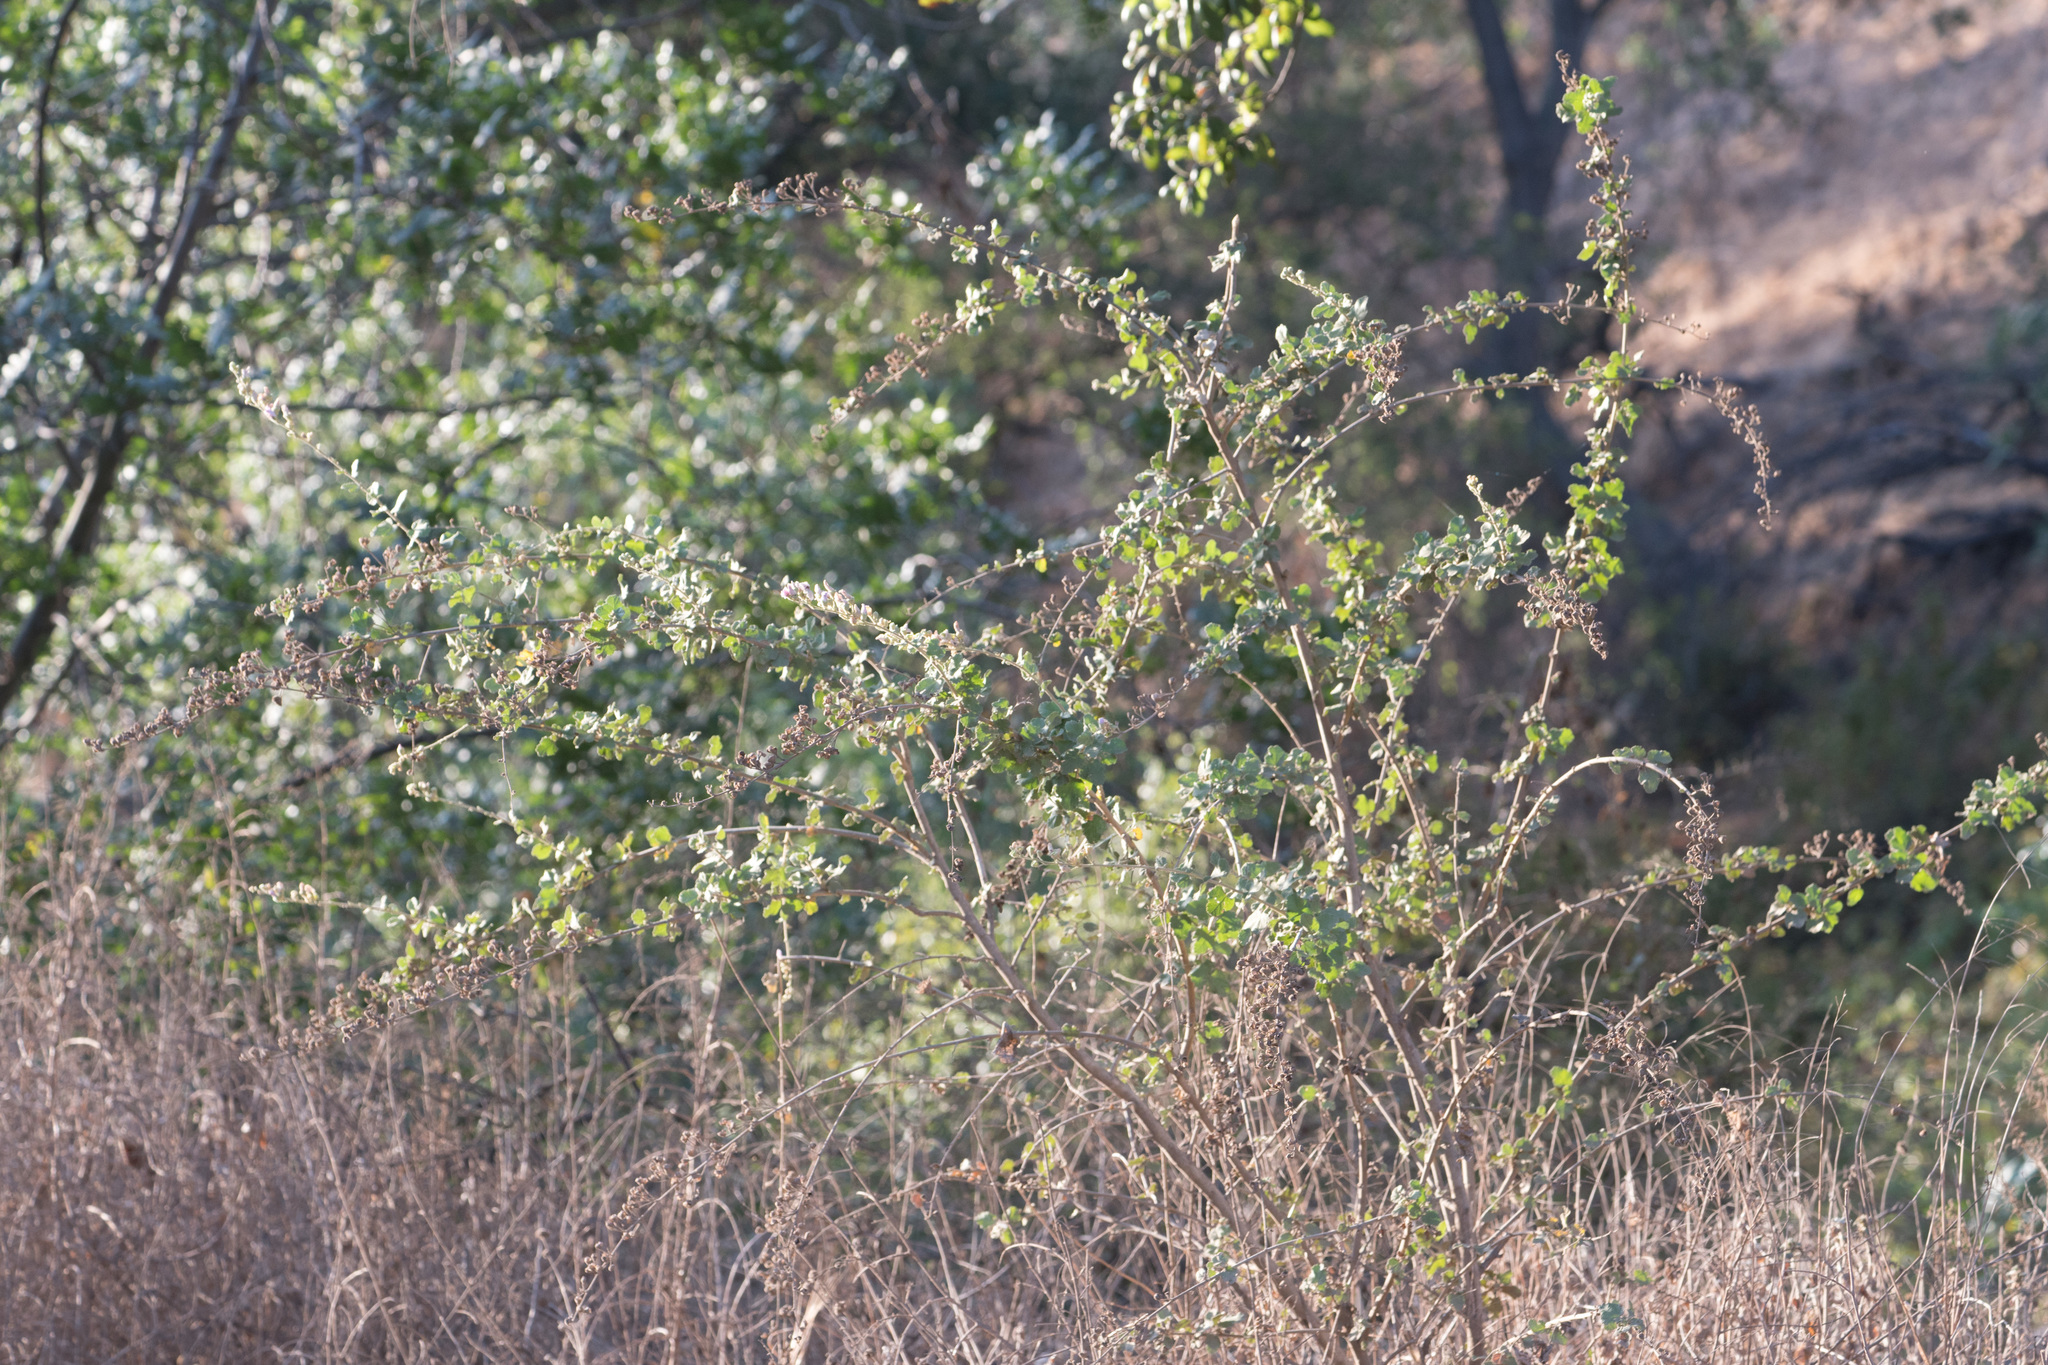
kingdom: Plantae
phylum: Tracheophyta
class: Magnoliopsida
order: Malvales
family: Malvaceae
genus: Malacothamnus
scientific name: Malacothamnus fasciculatus
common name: Sant cruz island bush-mallow
